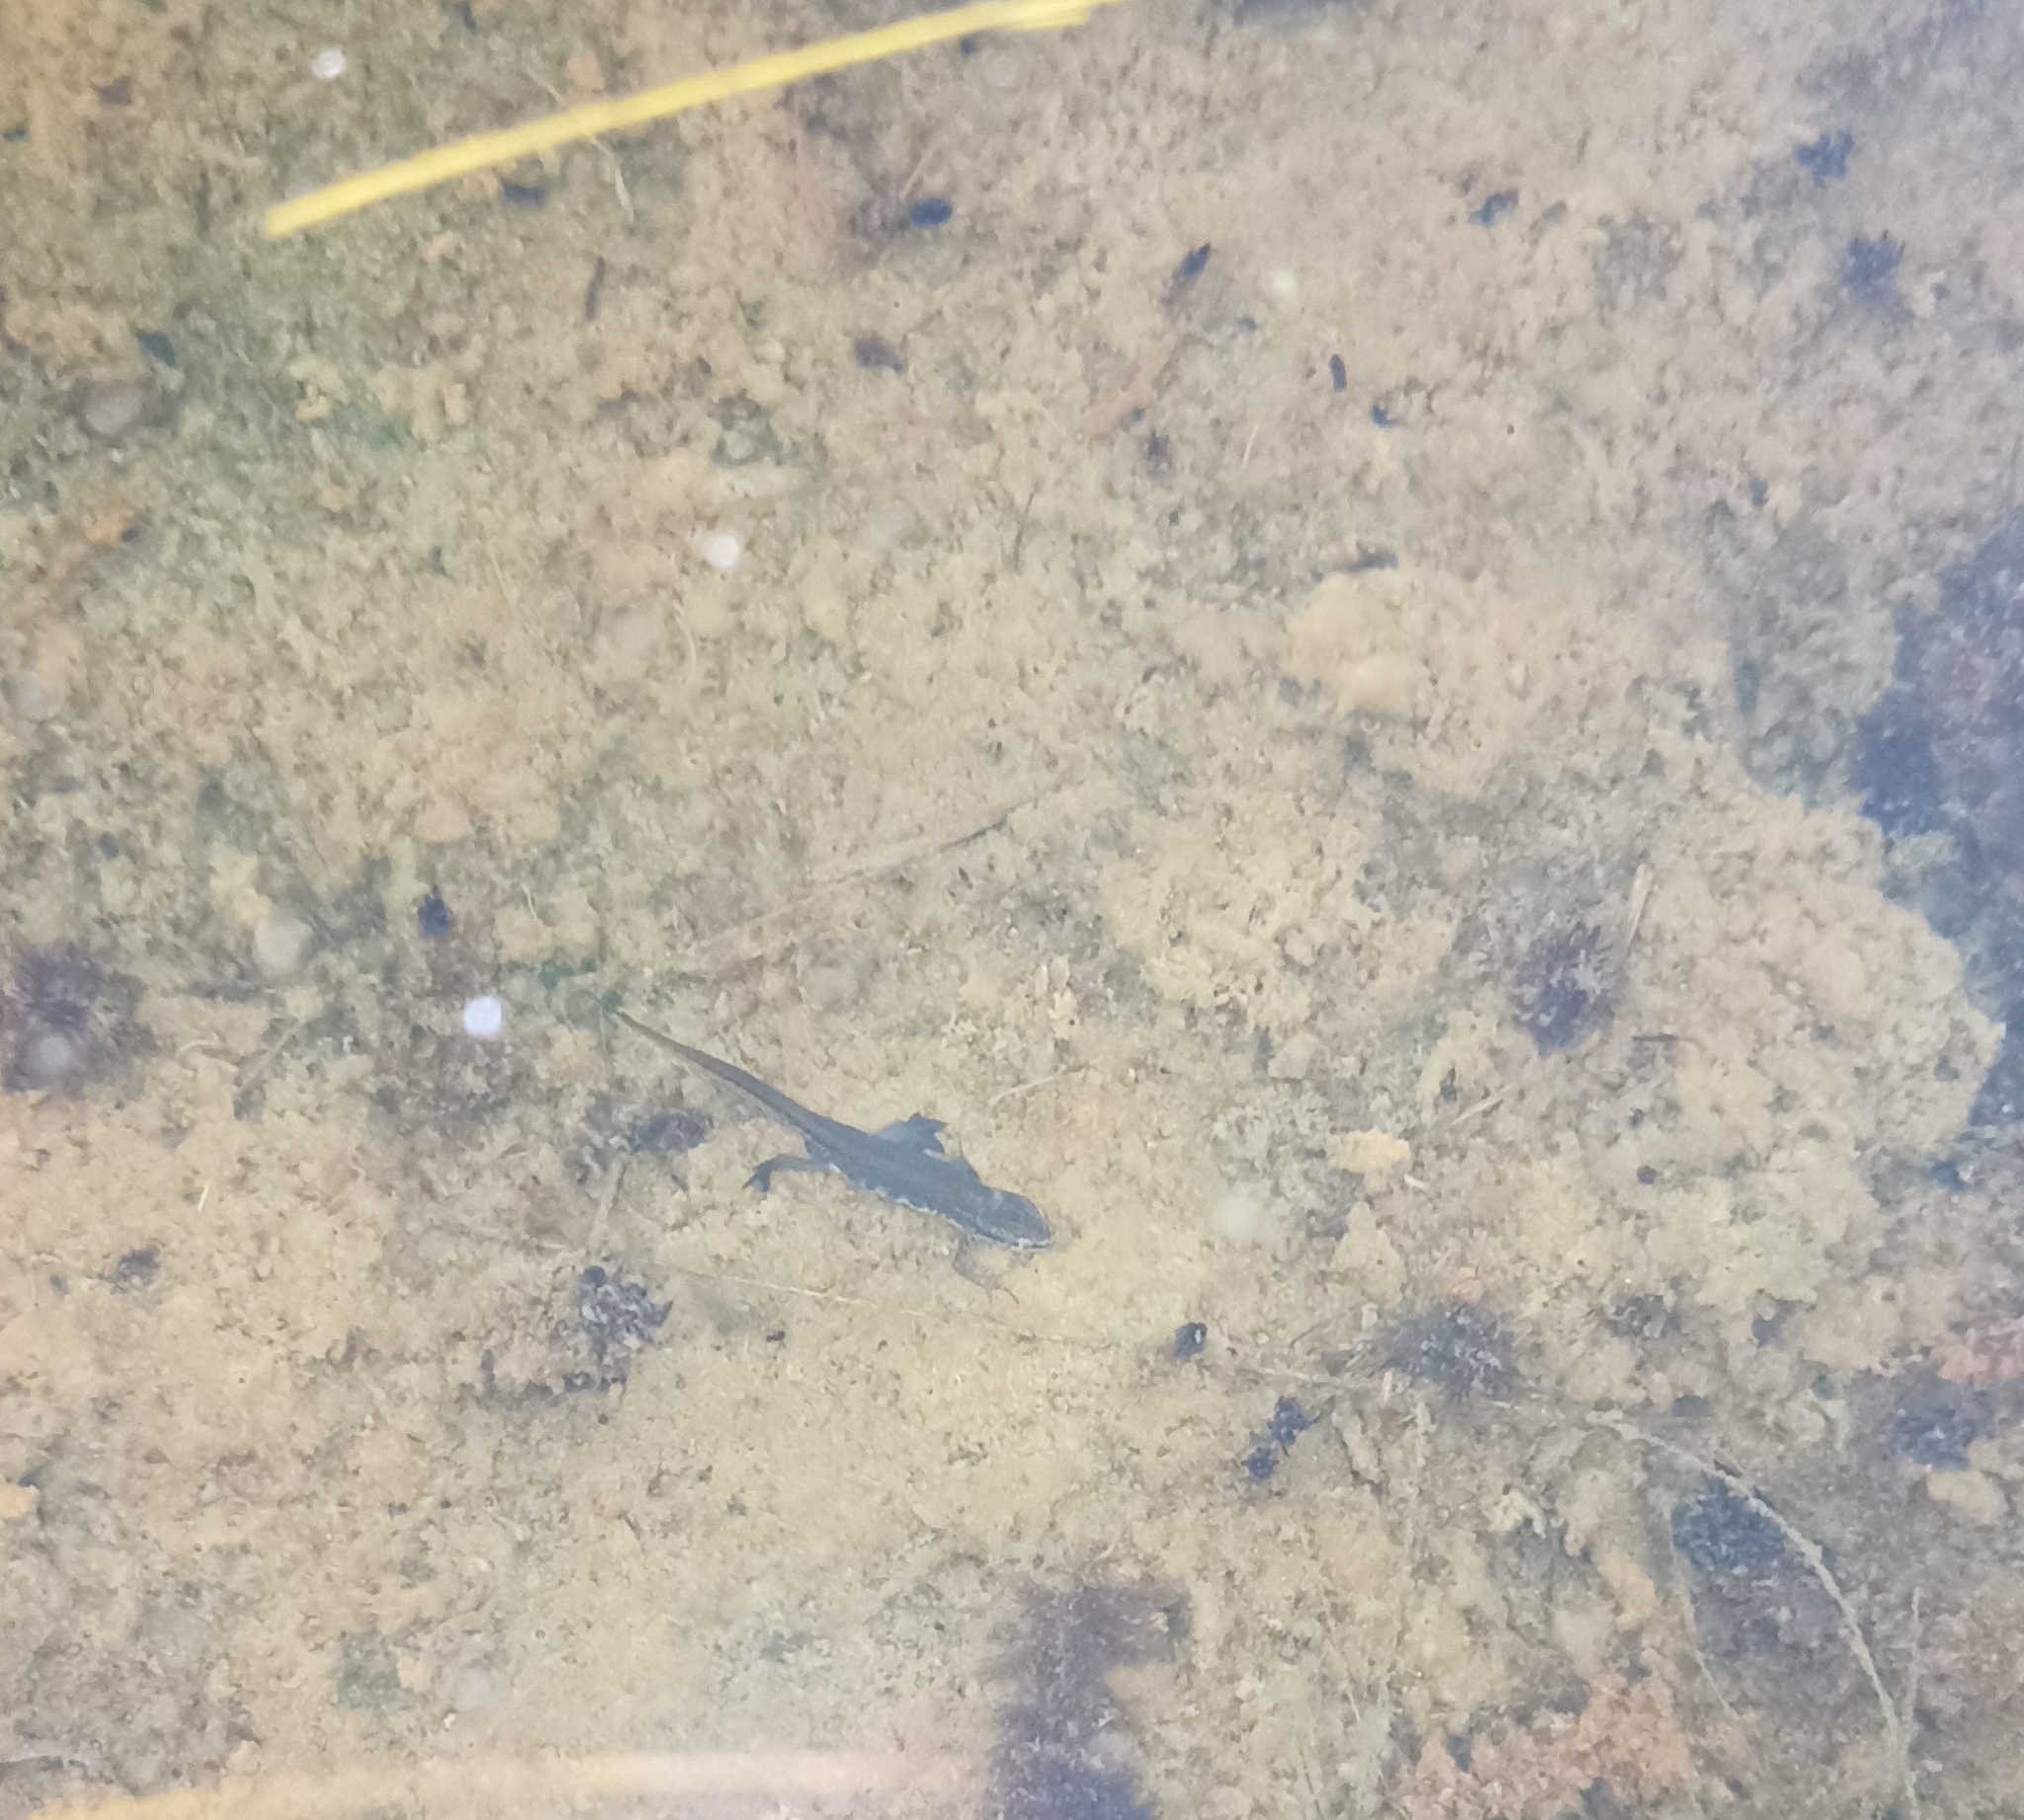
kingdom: Animalia
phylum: Chordata
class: Amphibia
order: Caudata
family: Salamandridae
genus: Lissotriton
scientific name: Lissotriton helveticus
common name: Palmate newt
